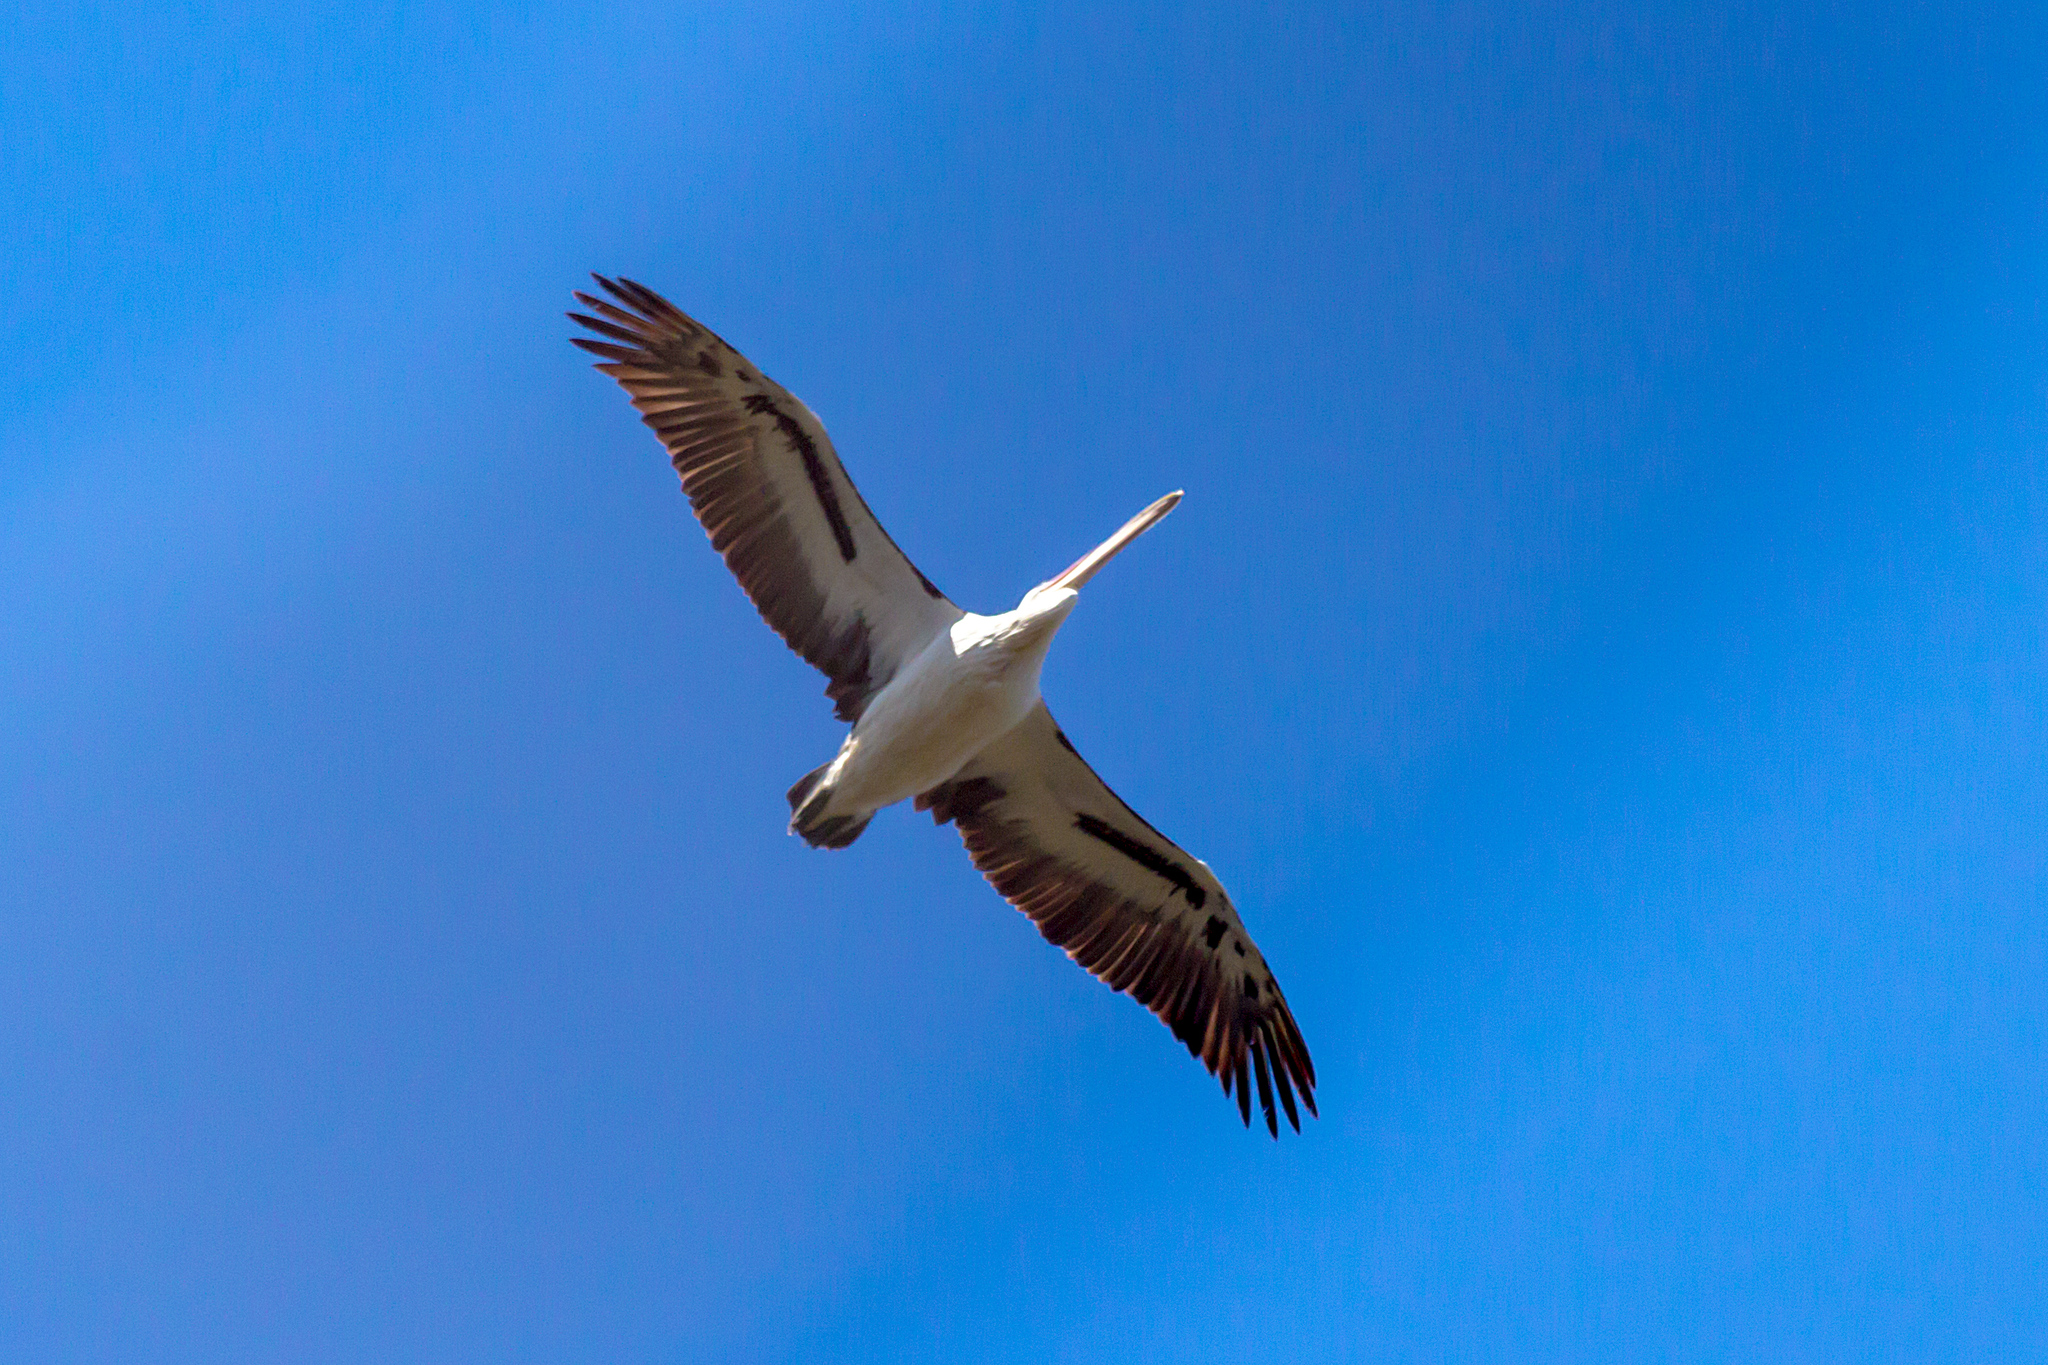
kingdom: Animalia
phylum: Chordata
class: Aves
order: Pelecaniformes
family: Pelecanidae
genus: Pelecanus
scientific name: Pelecanus conspicillatus
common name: Australian pelican
